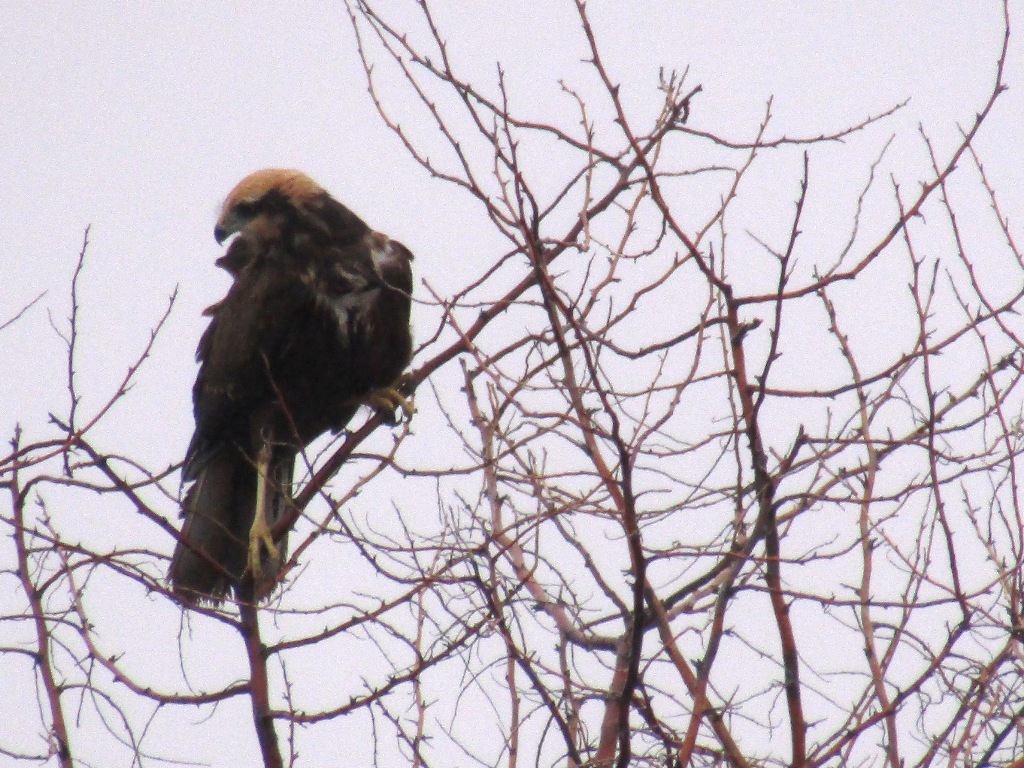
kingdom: Animalia
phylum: Chordata
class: Aves
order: Accipitriformes
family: Accipitridae
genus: Circus
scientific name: Circus aeruginosus
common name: Western marsh harrier
